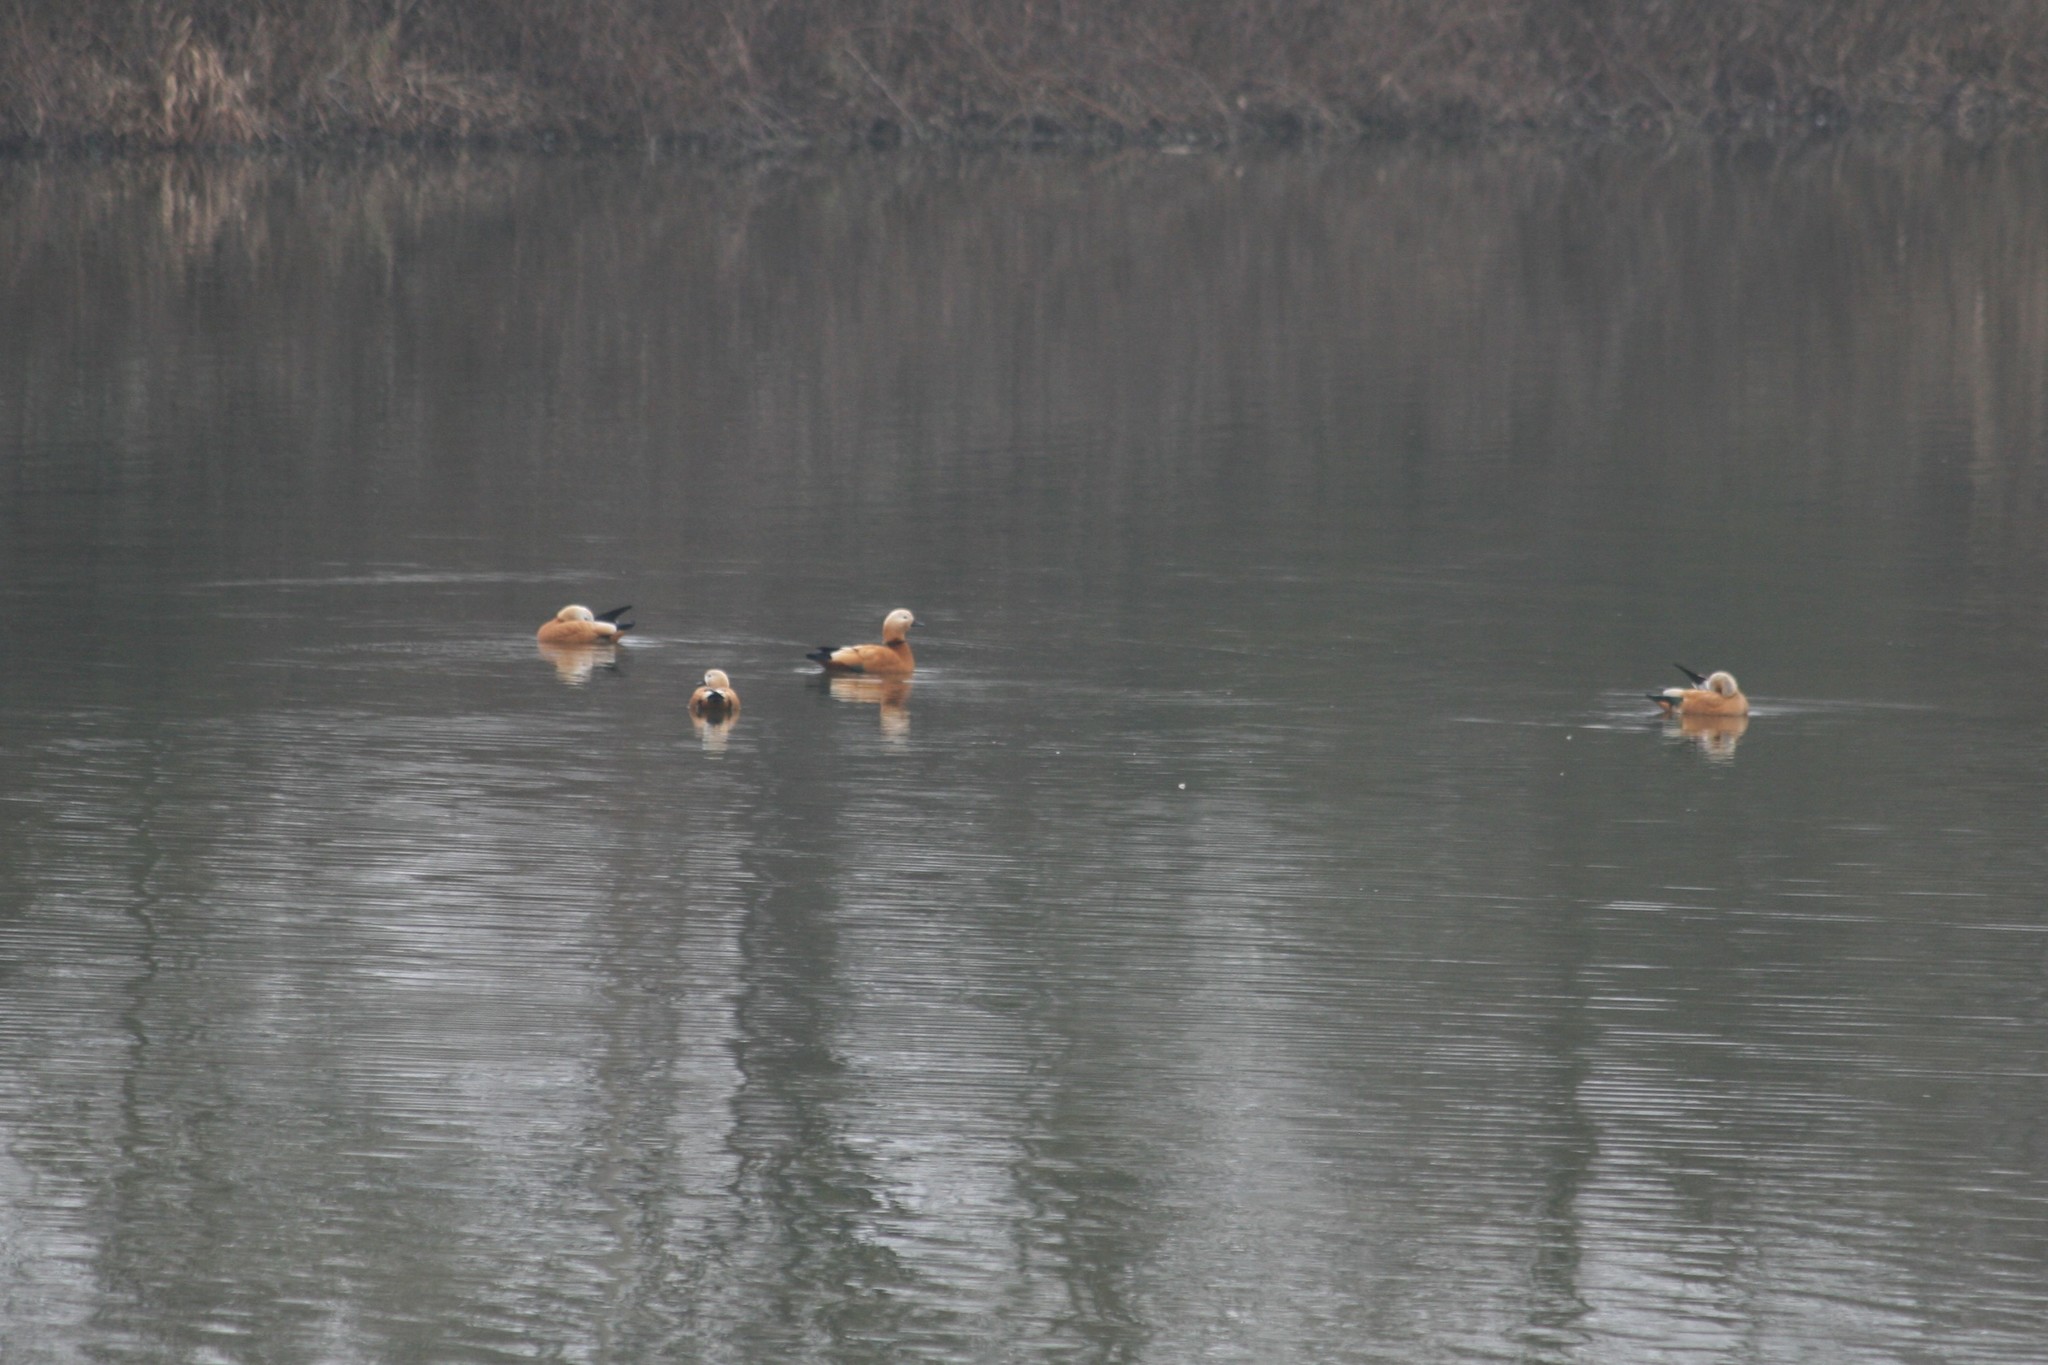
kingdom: Animalia
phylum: Chordata
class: Aves
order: Anseriformes
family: Anatidae
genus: Tadorna
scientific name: Tadorna ferruginea
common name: Ruddy shelduck
